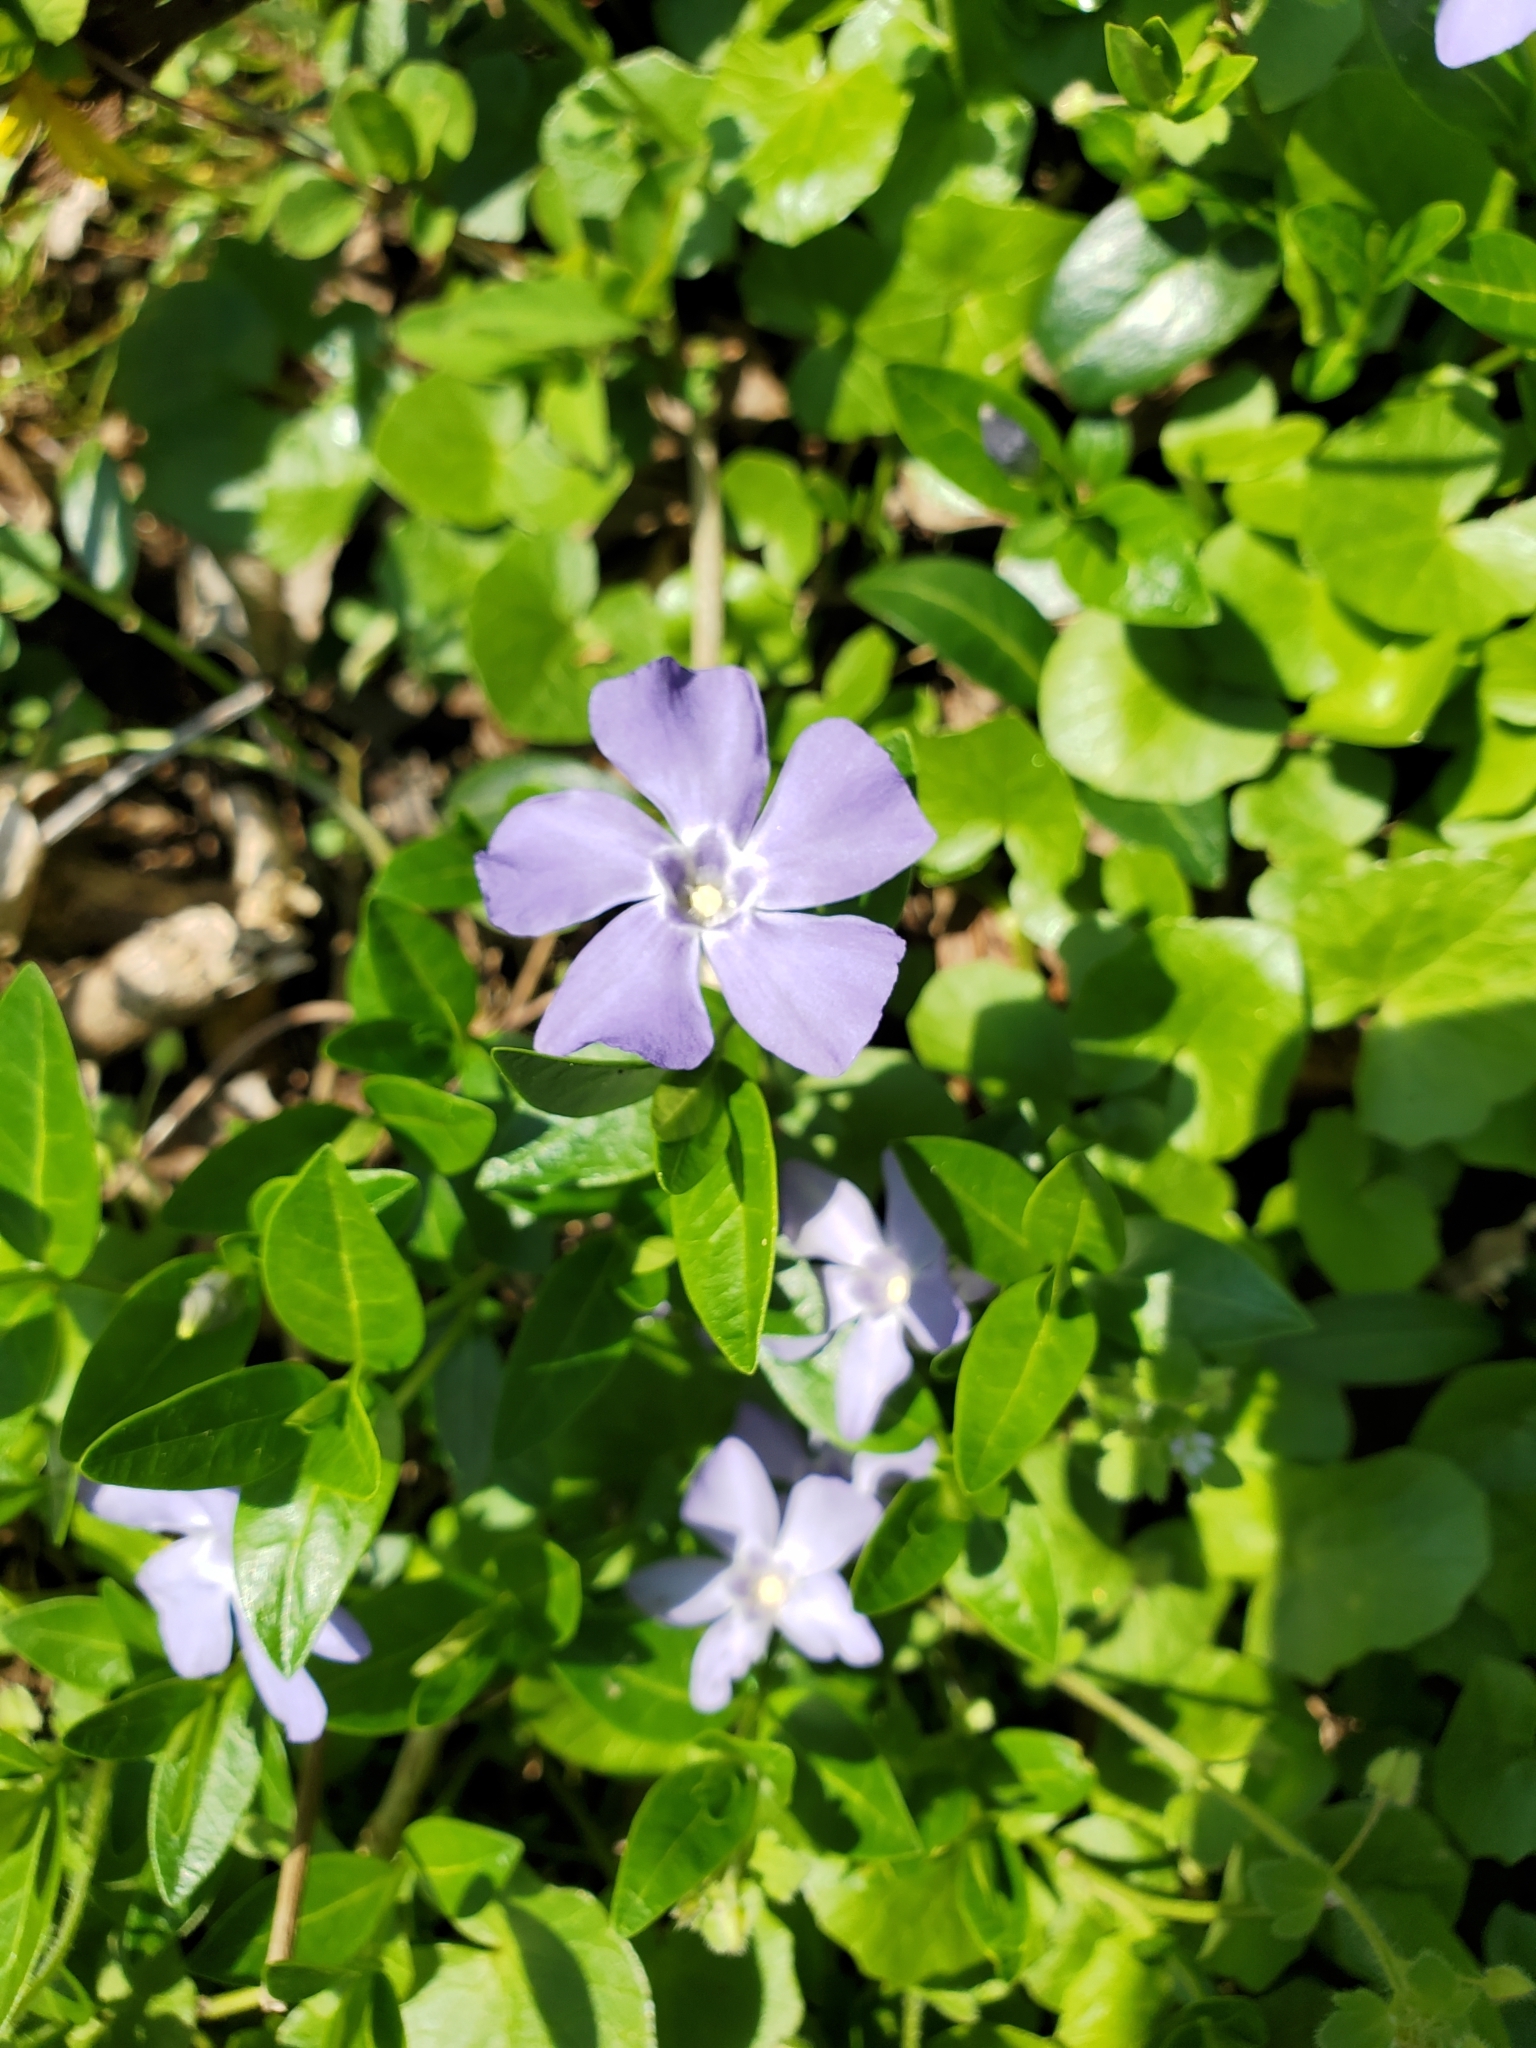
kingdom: Plantae
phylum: Tracheophyta
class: Magnoliopsida
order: Gentianales
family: Apocynaceae
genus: Vinca
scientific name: Vinca minor
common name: Lesser periwinkle
